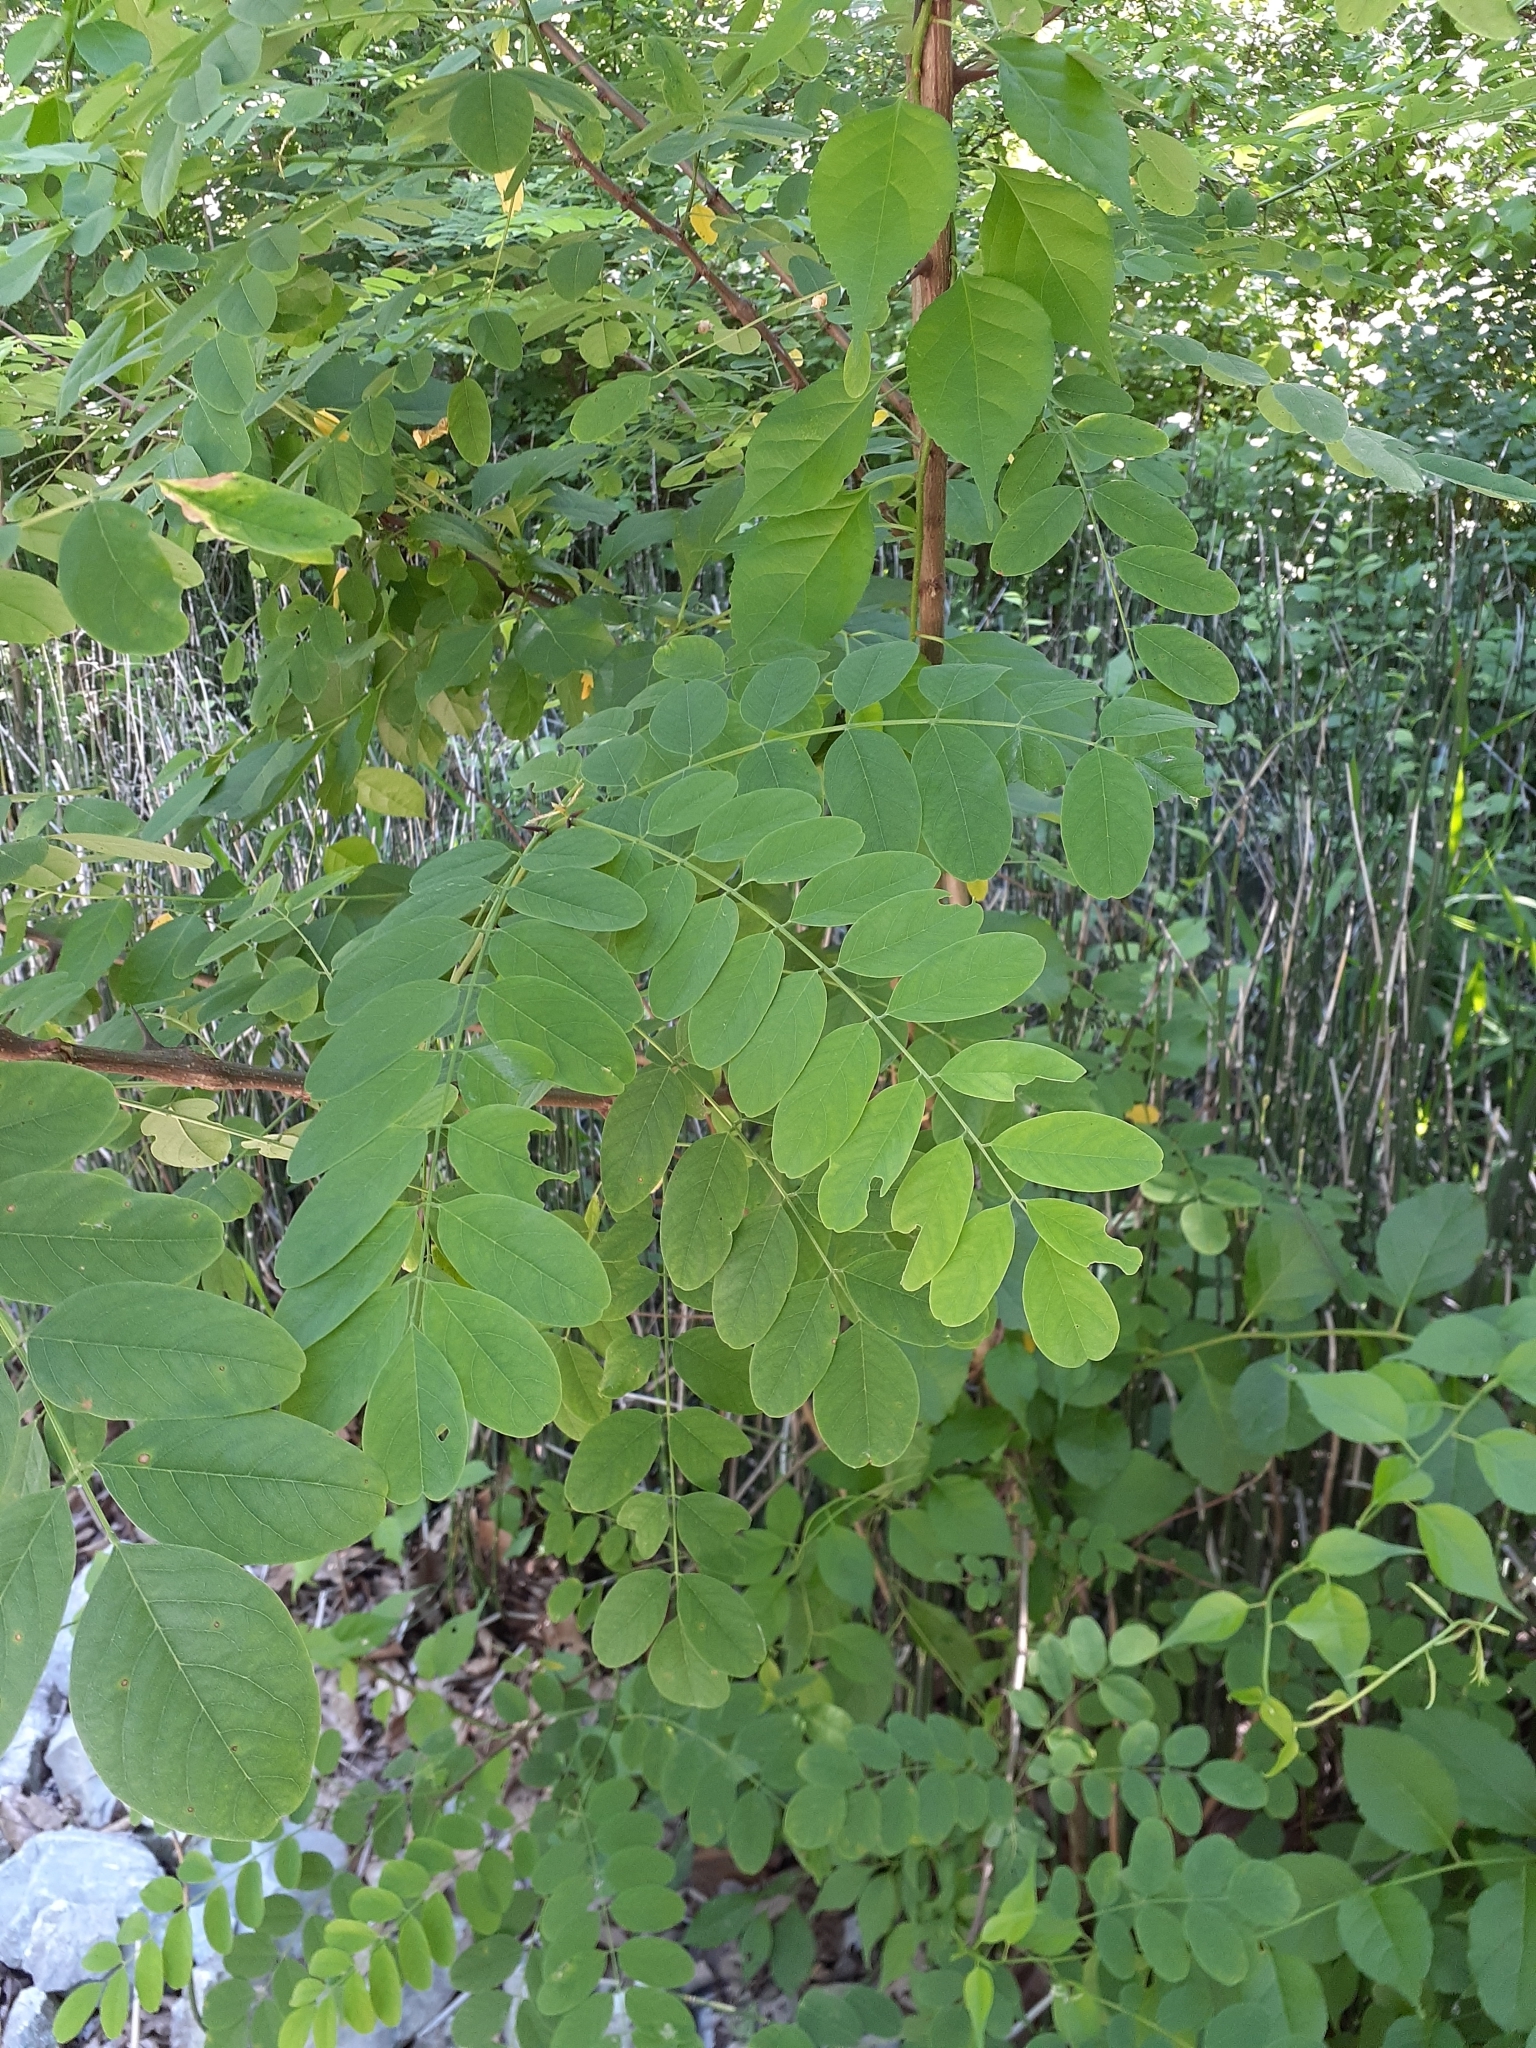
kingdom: Plantae
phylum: Tracheophyta
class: Magnoliopsida
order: Fabales
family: Fabaceae
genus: Robinia
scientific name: Robinia pseudoacacia
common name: Black locust
